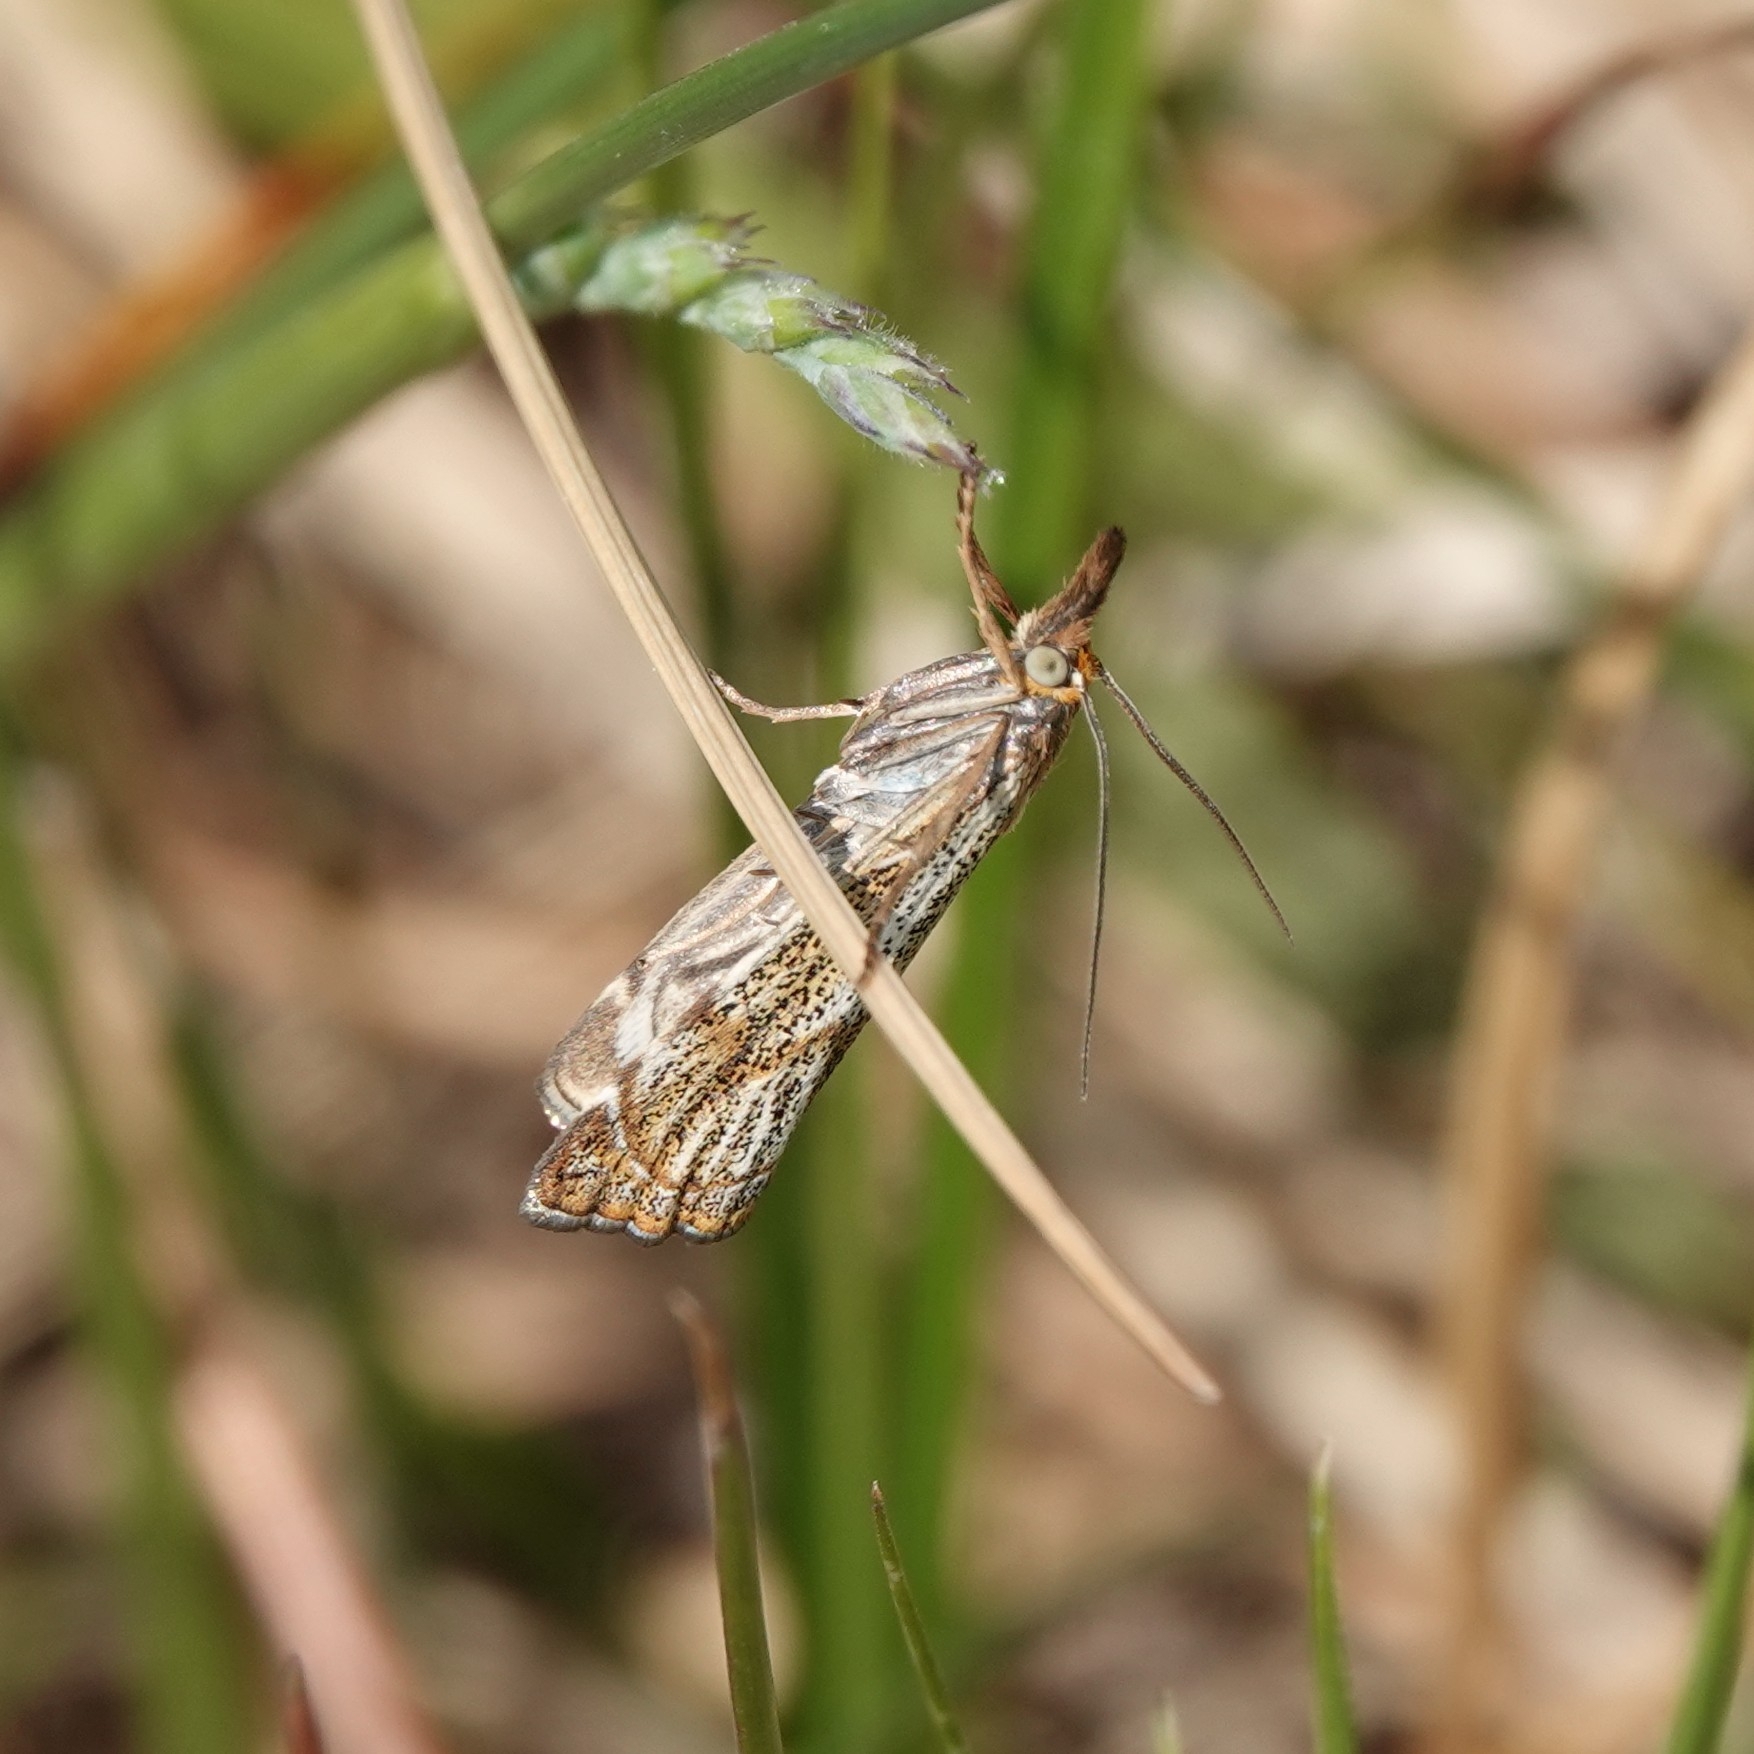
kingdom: Animalia
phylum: Arthropoda
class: Insecta
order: Lepidoptera
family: Crambidae
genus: Thisanotia
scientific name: Thisanotia chrysonuchella
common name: Powdered grass-veneer
